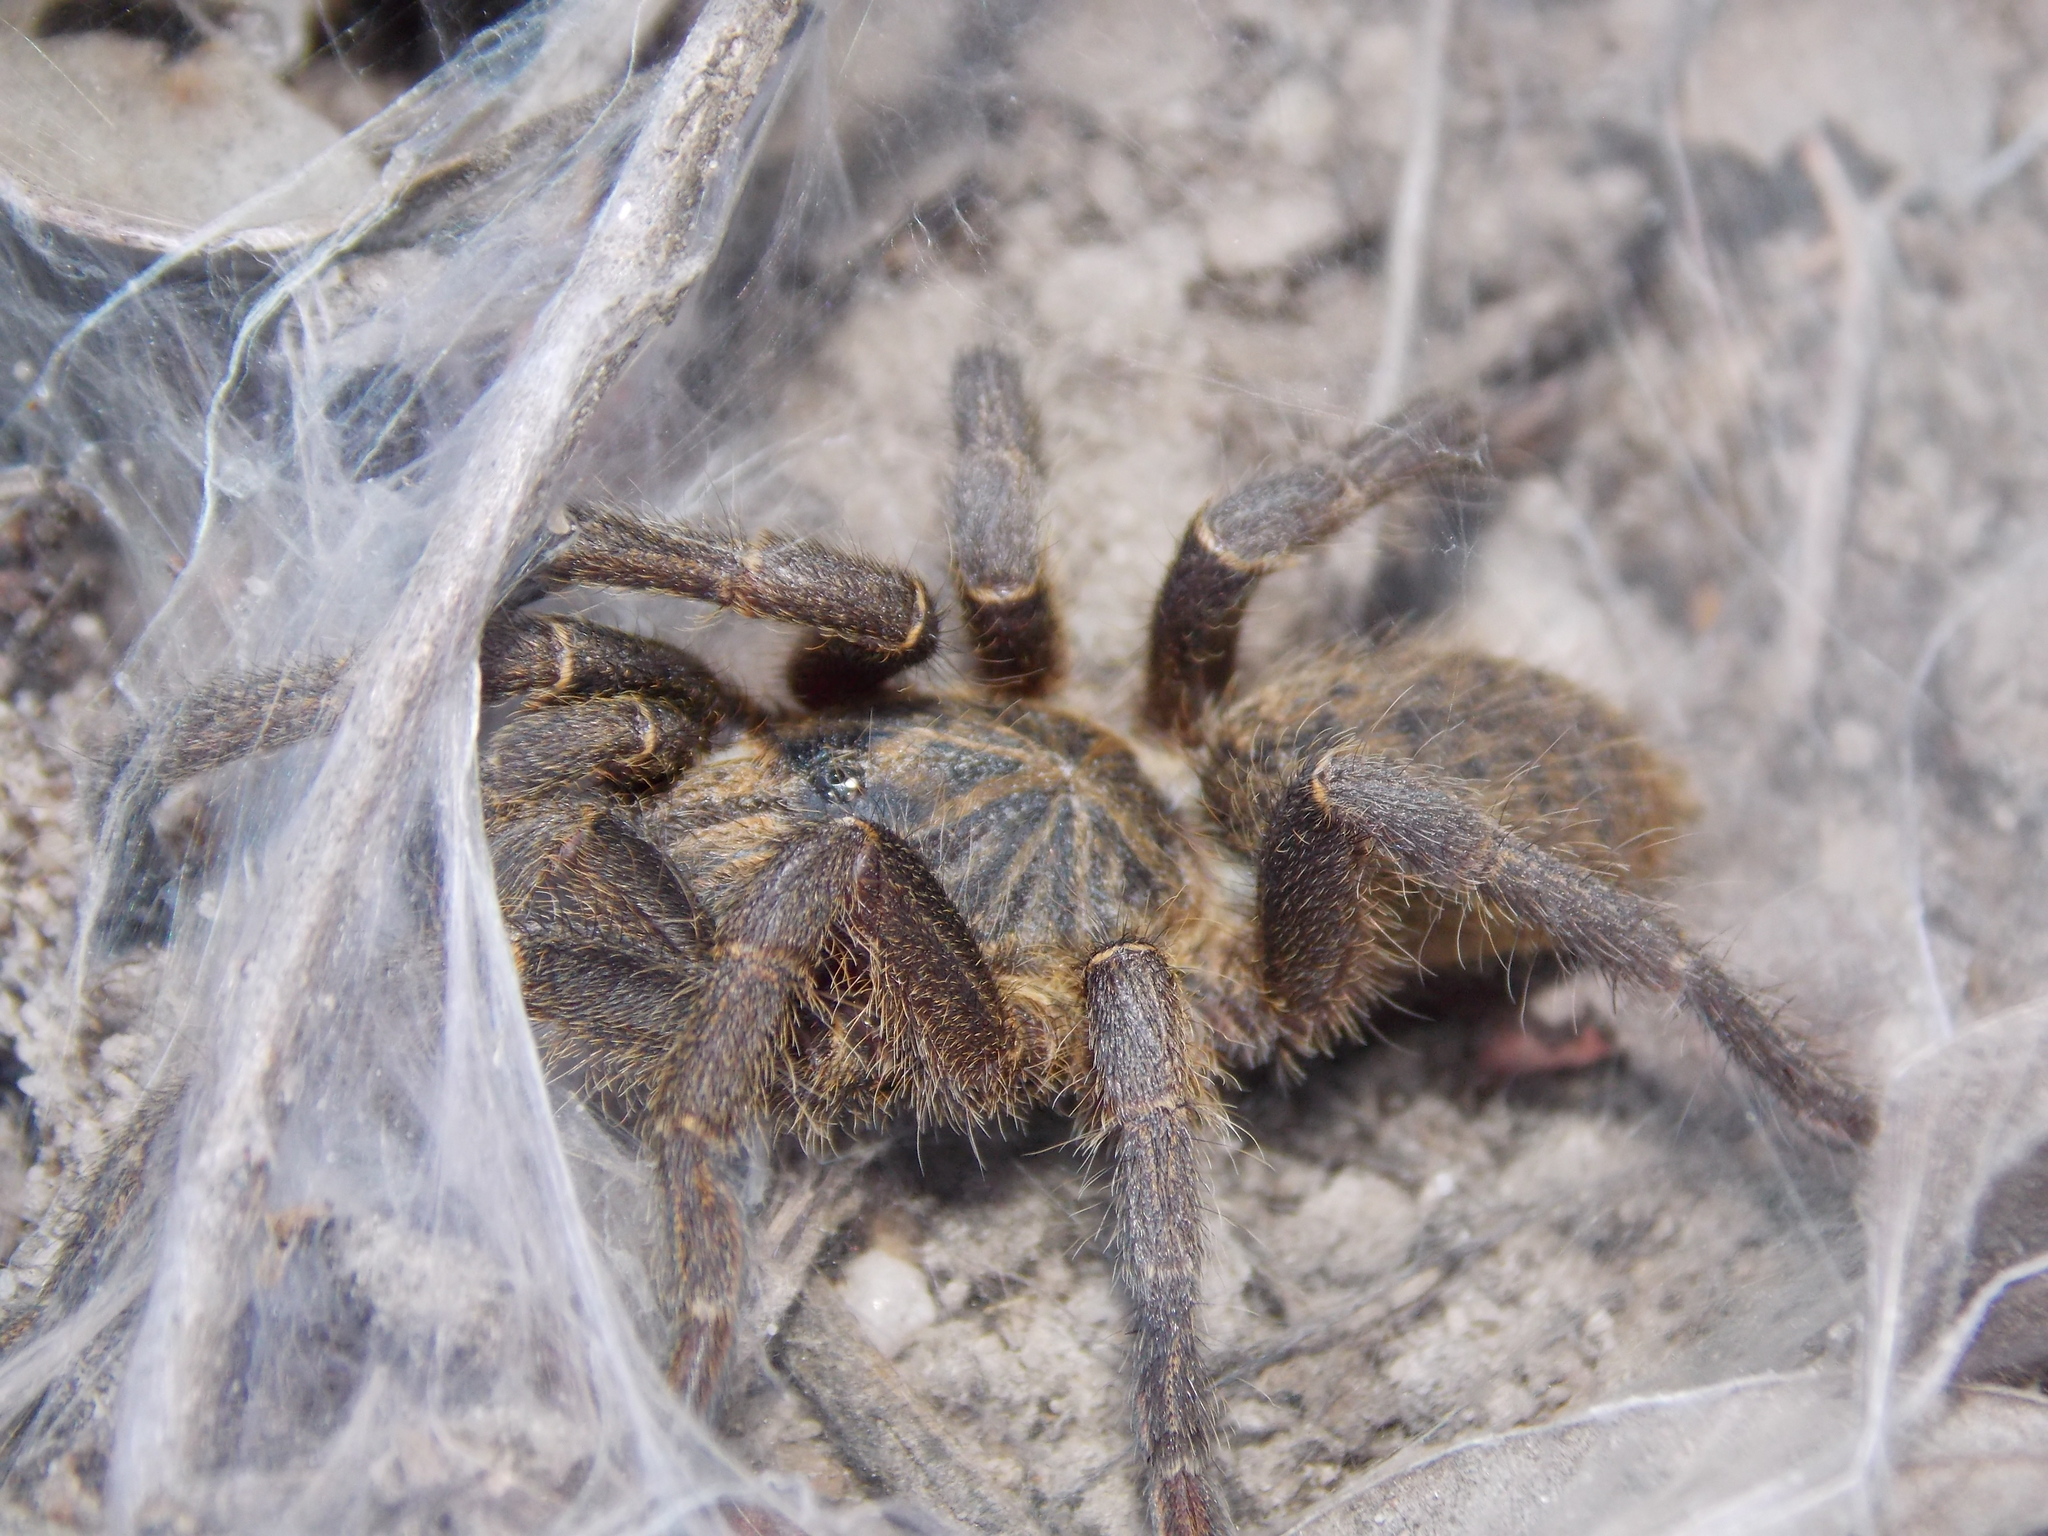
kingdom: Animalia
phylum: Arthropoda
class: Arachnida
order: Araneae
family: Theraphosidae
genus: Harpactira
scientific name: Harpactira tigrina
